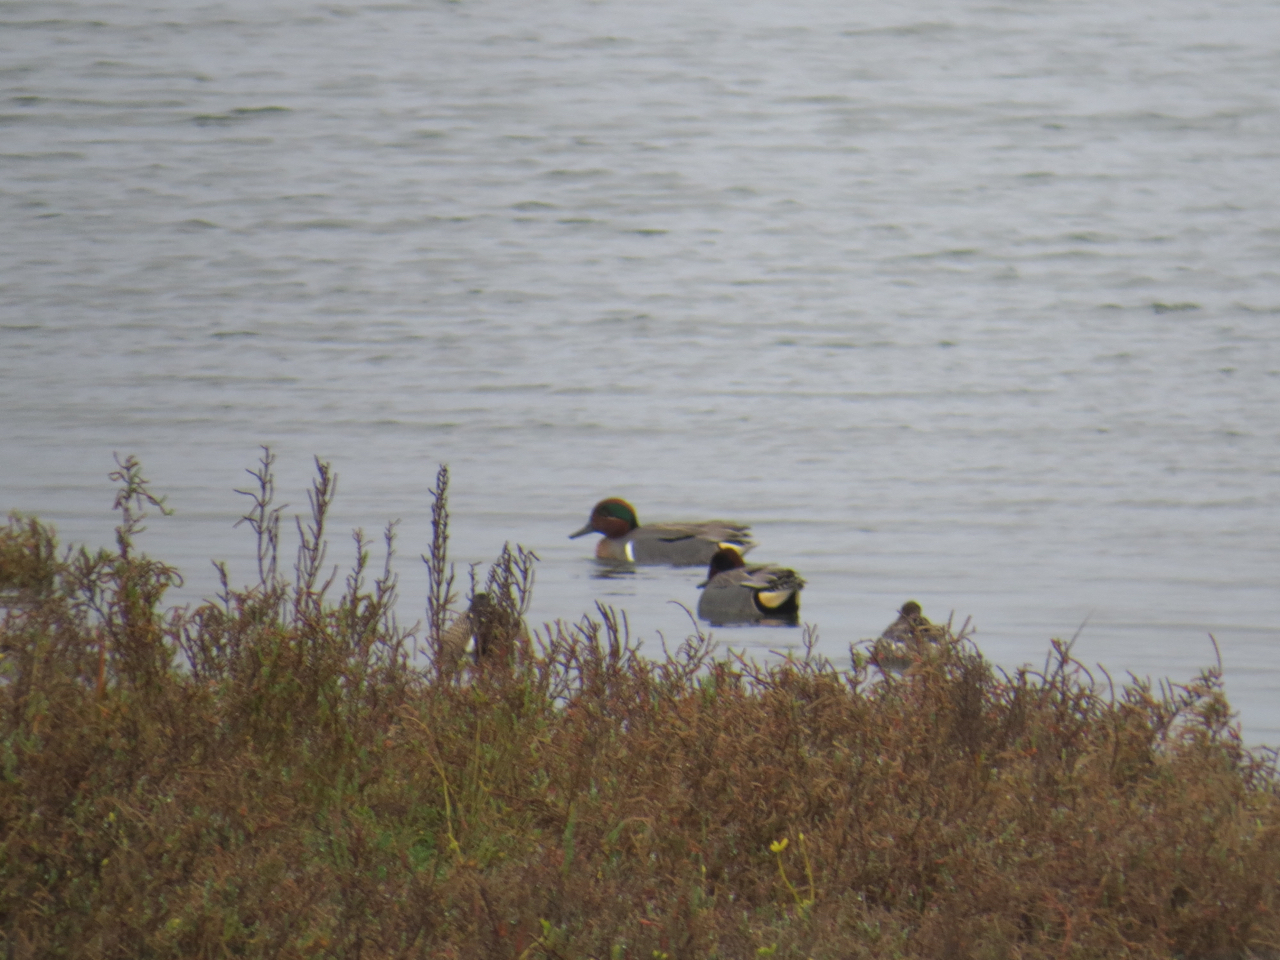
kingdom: Animalia
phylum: Chordata
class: Aves
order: Anseriformes
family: Anatidae
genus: Anas
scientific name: Anas crecca
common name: Eurasian teal
